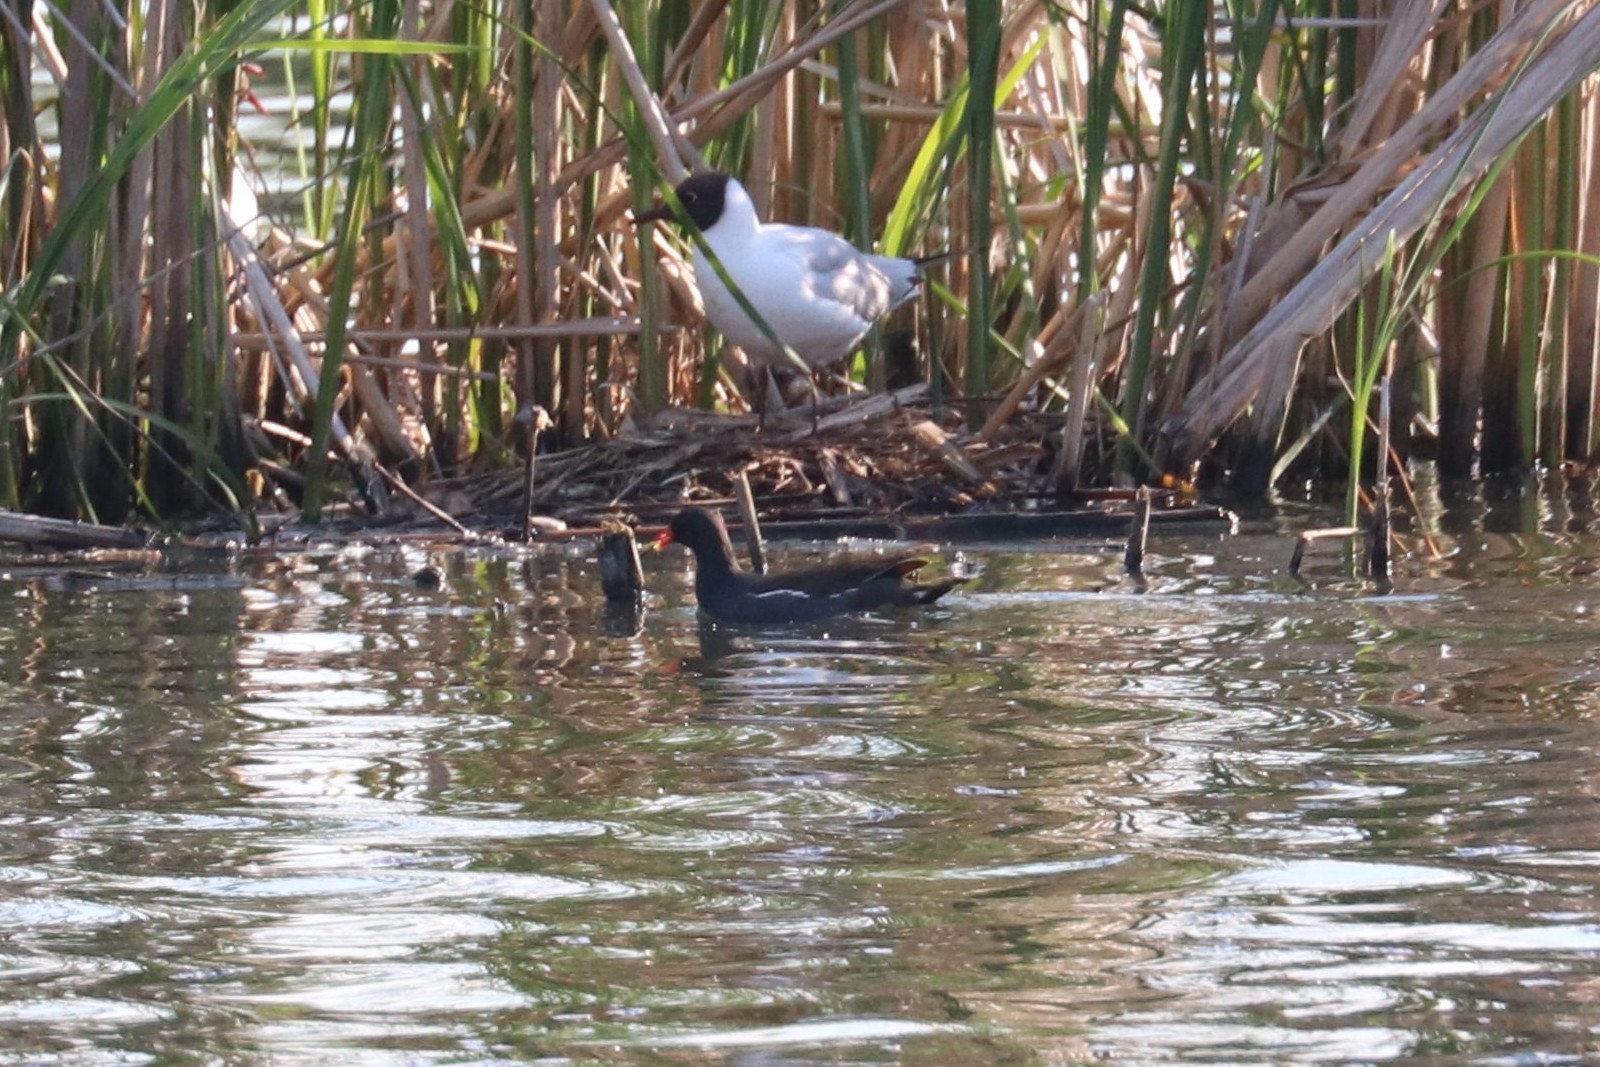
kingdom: Animalia
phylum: Chordata
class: Aves
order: Gruiformes
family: Rallidae
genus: Gallinula
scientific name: Gallinula chloropus
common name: Common moorhen
